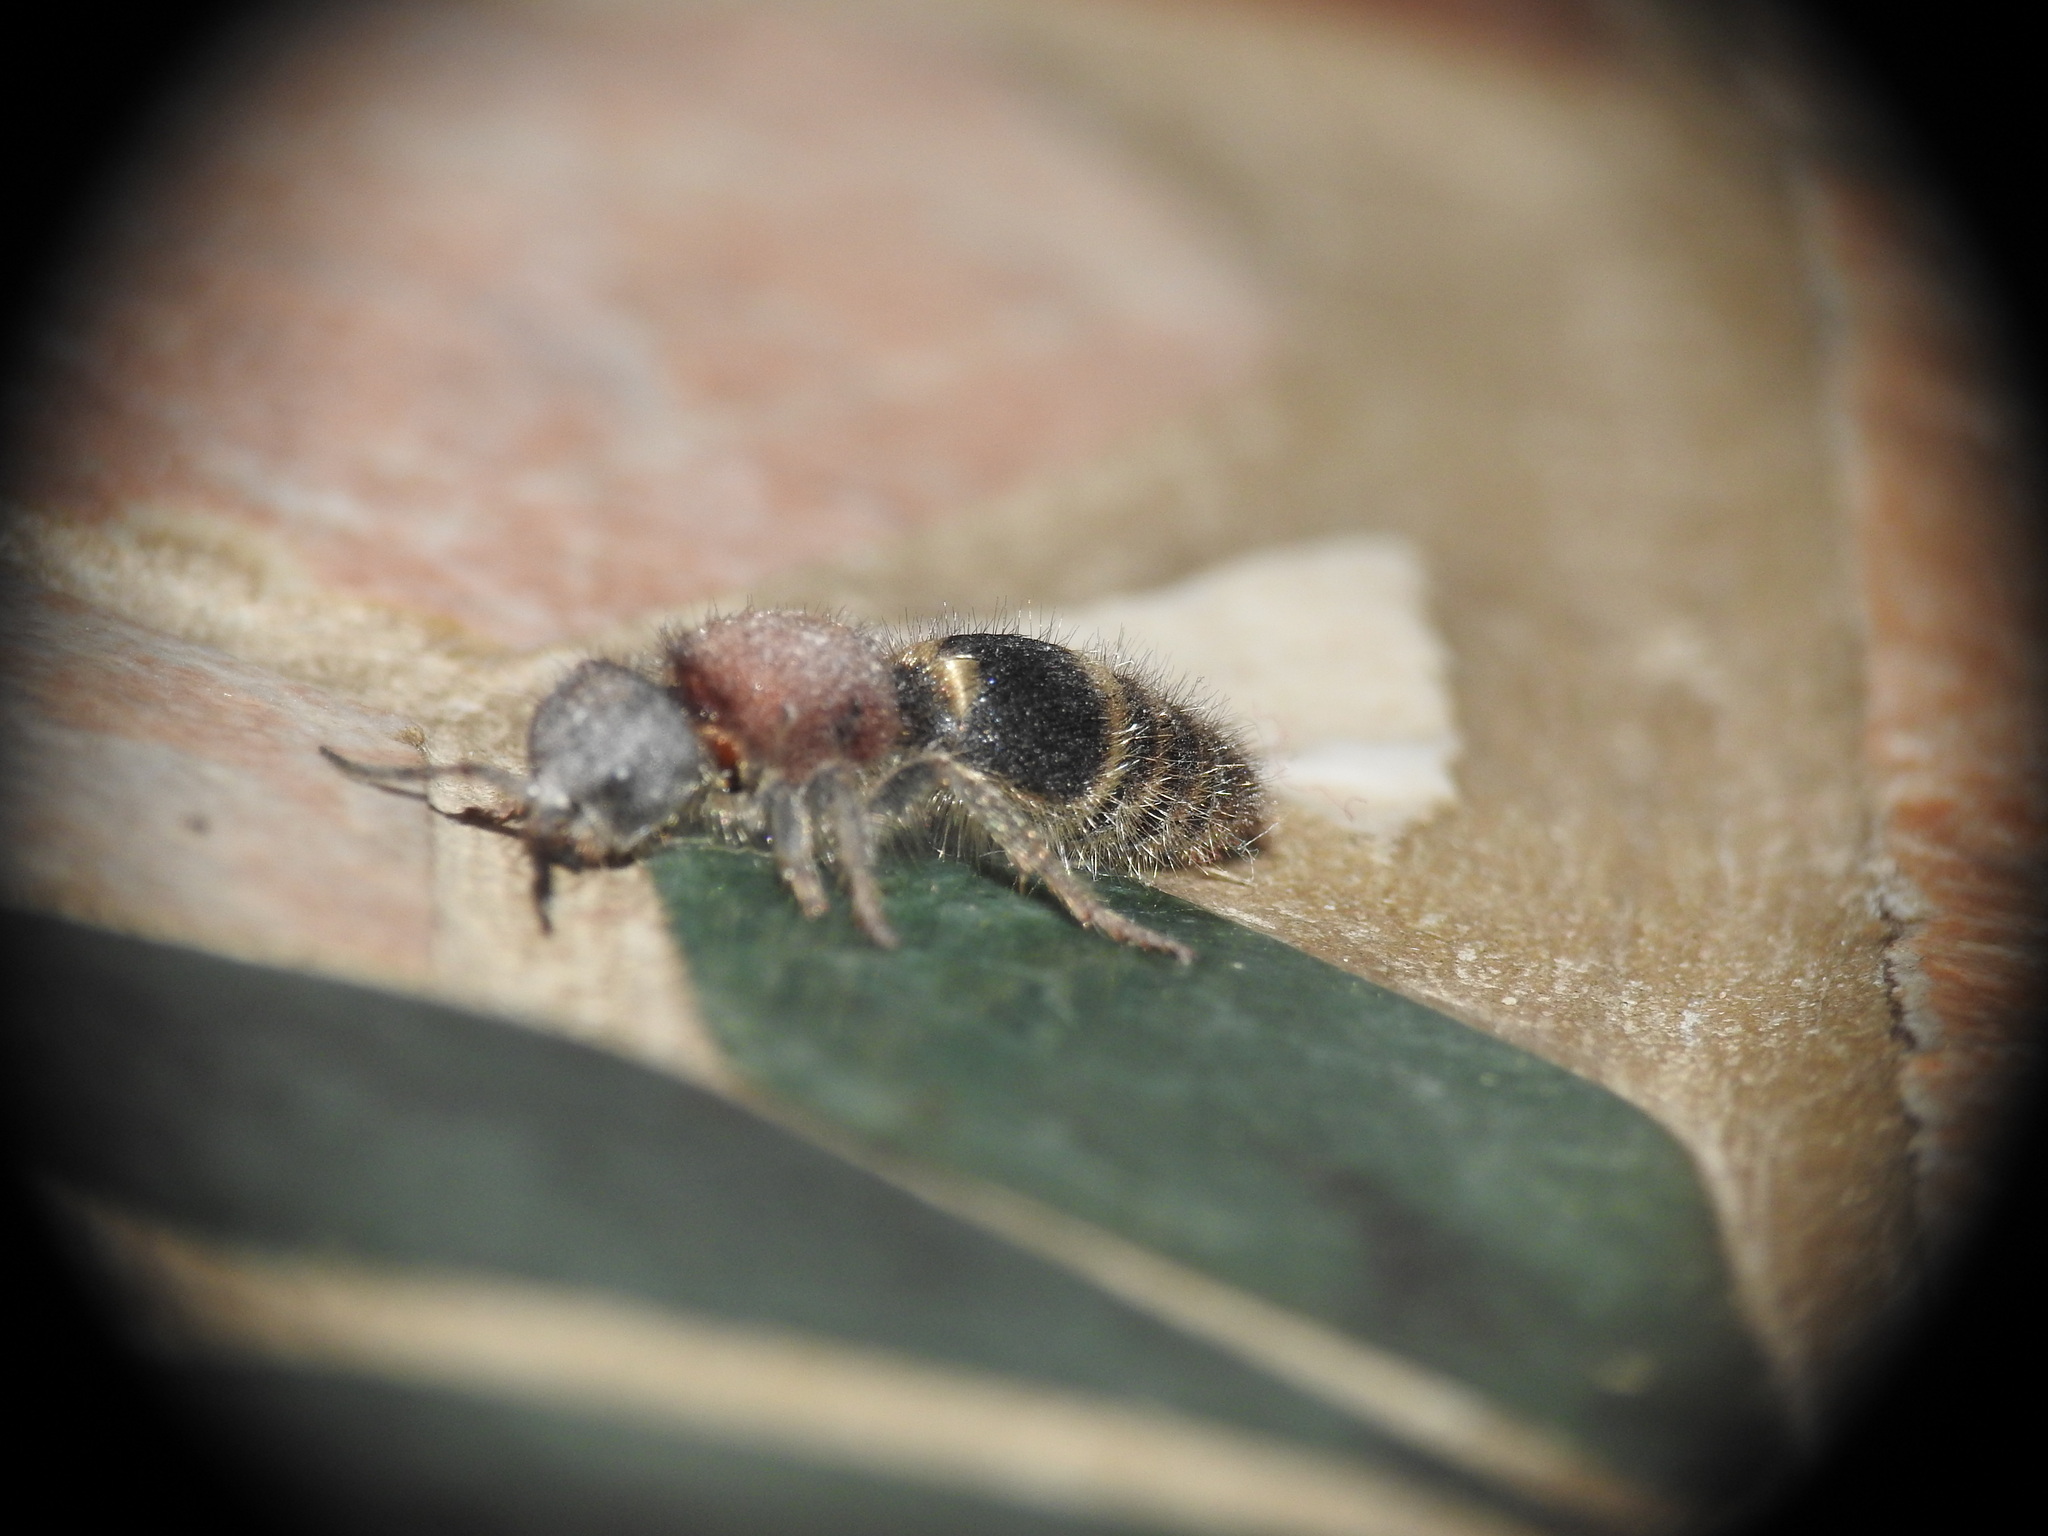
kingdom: Animalia
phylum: Arthropoda
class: Insecta
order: Hymenoptera
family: Mutillidae
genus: Tropidotilla
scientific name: Tropidotilla litoralis
